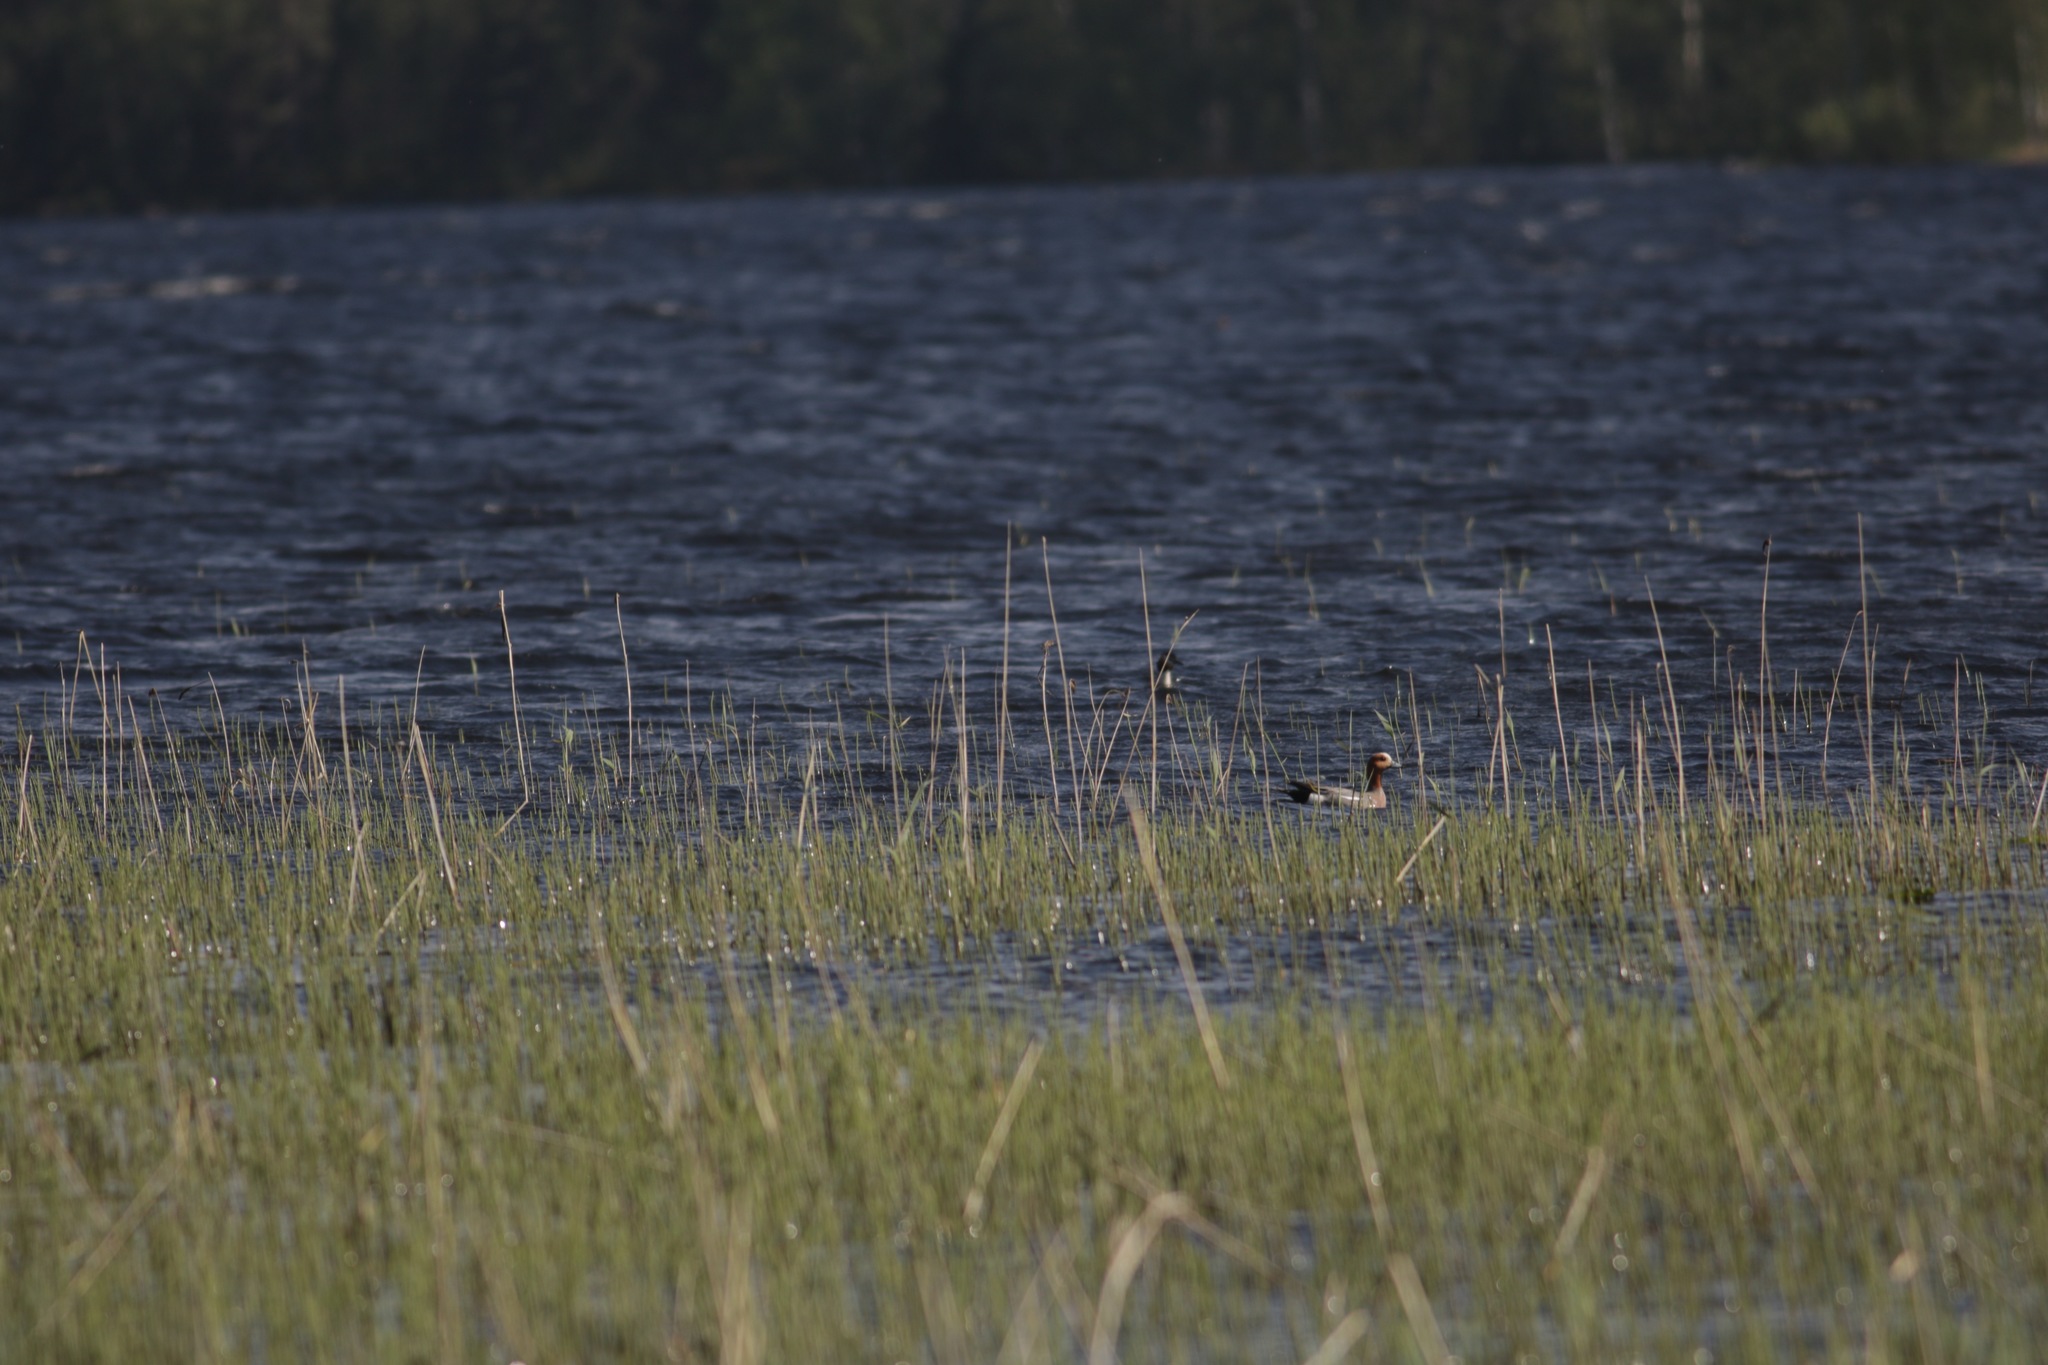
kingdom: Animalia
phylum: Chordata
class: Aves
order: Anseriformes
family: Anatidae
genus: Mareca
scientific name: Mareca penelope
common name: Eurasian wigeon
